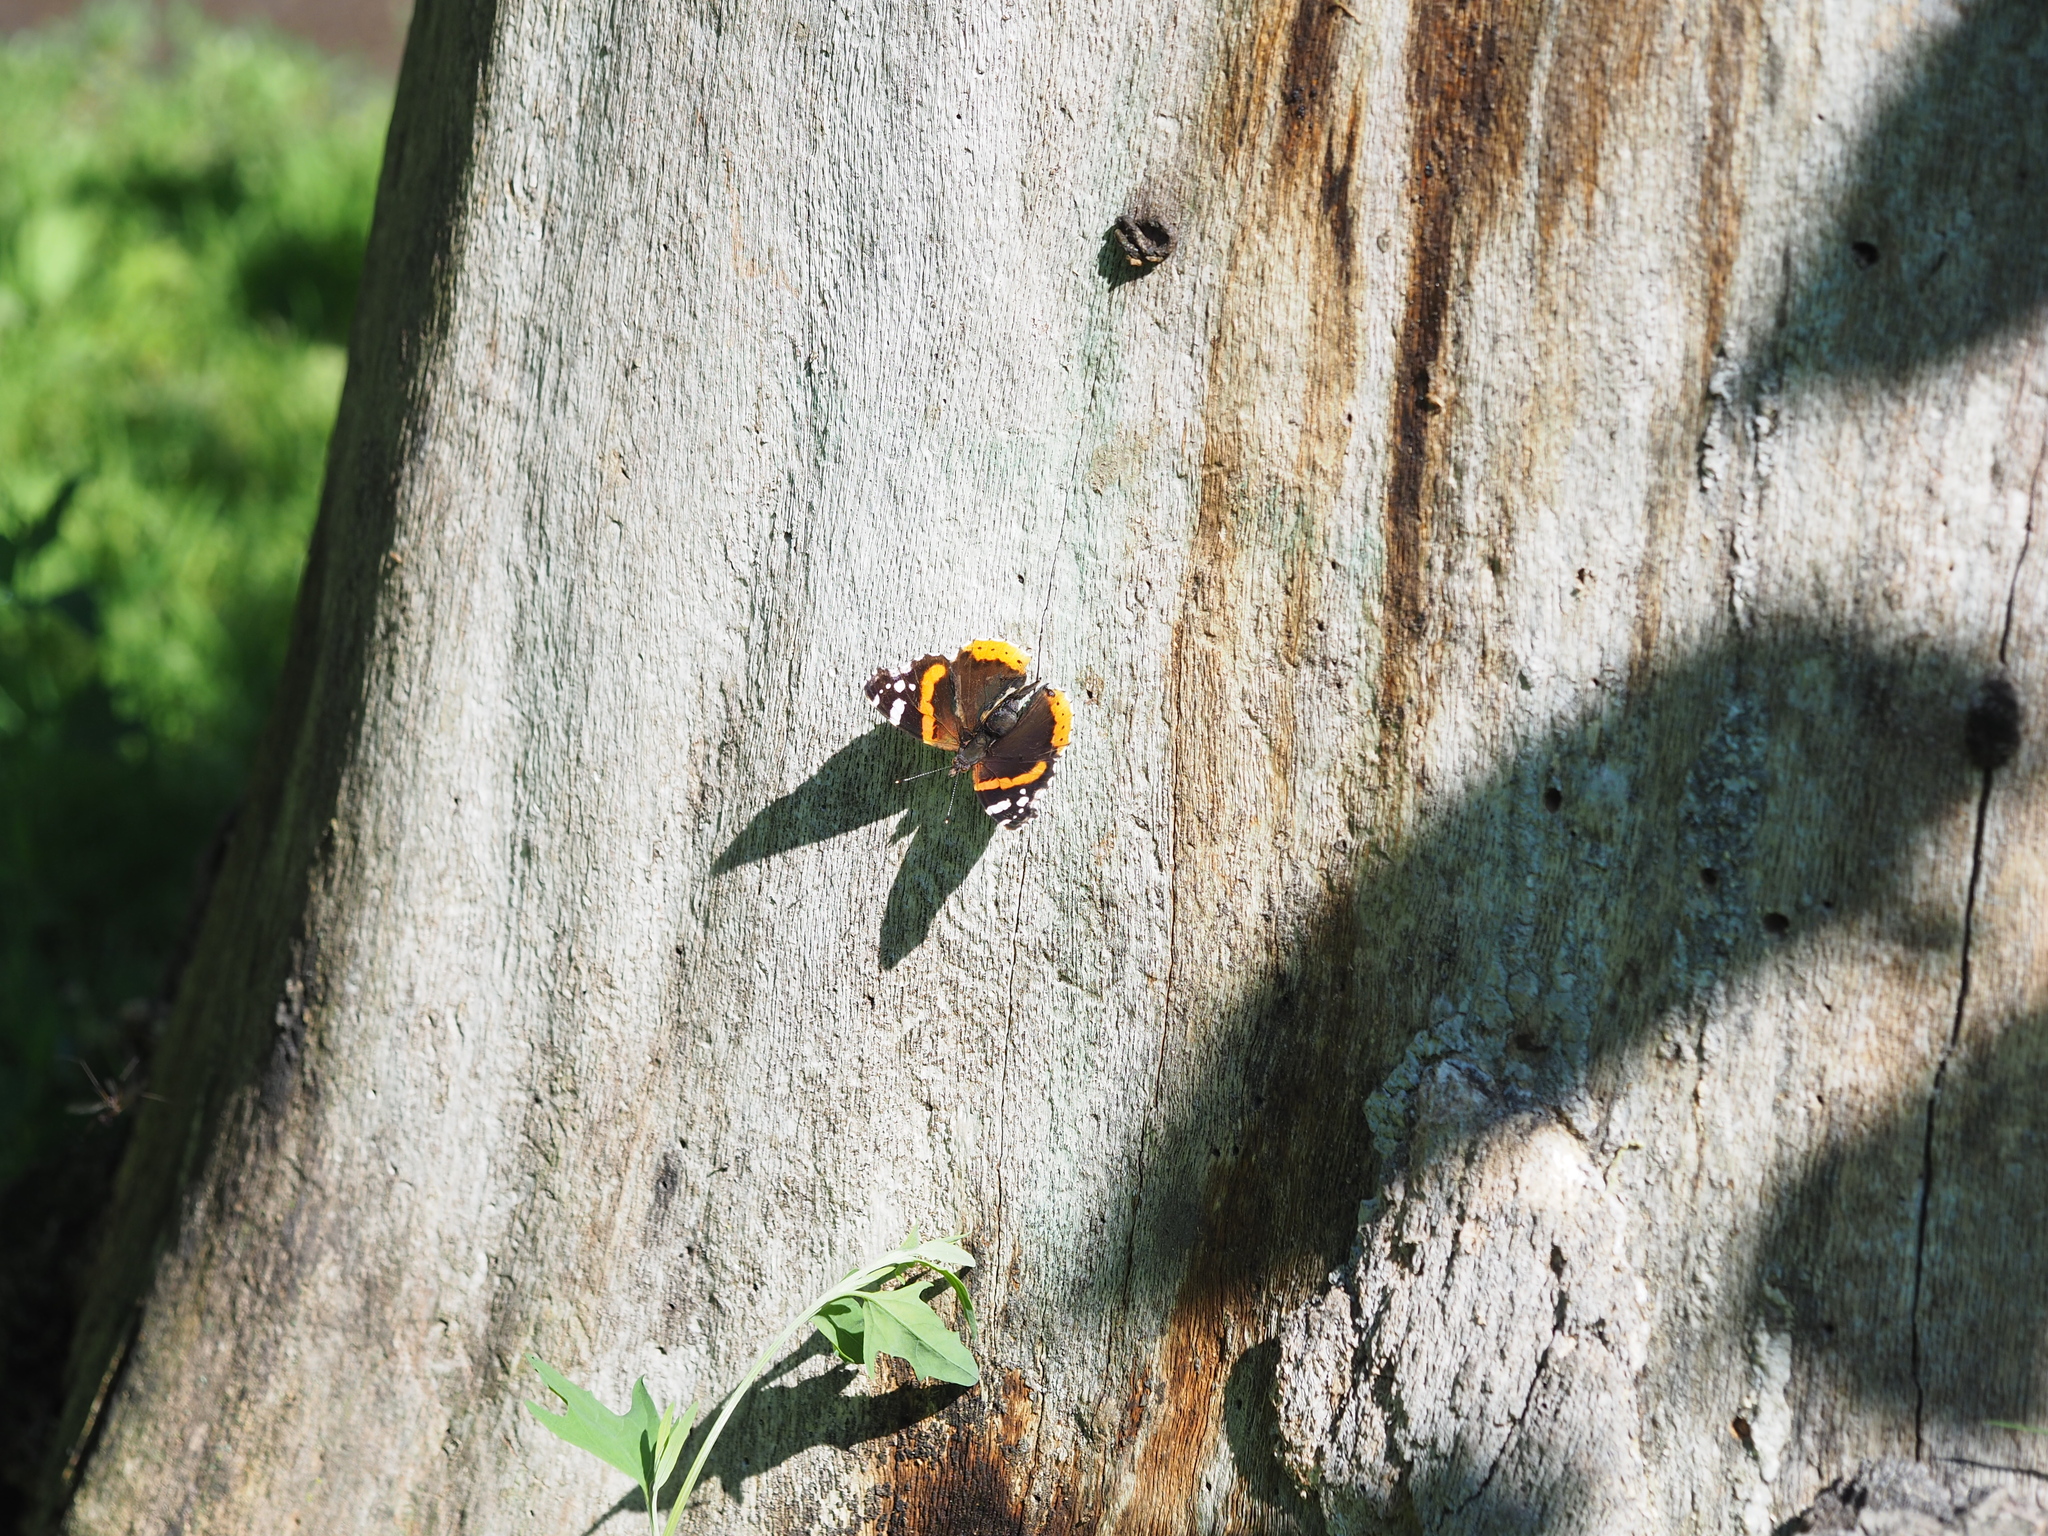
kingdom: Animalia
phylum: Arthropoda
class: Insecta
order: Lepidoptera
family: Nymphalidae
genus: Vanessa
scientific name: Vanessa atalanta
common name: Red admiral
